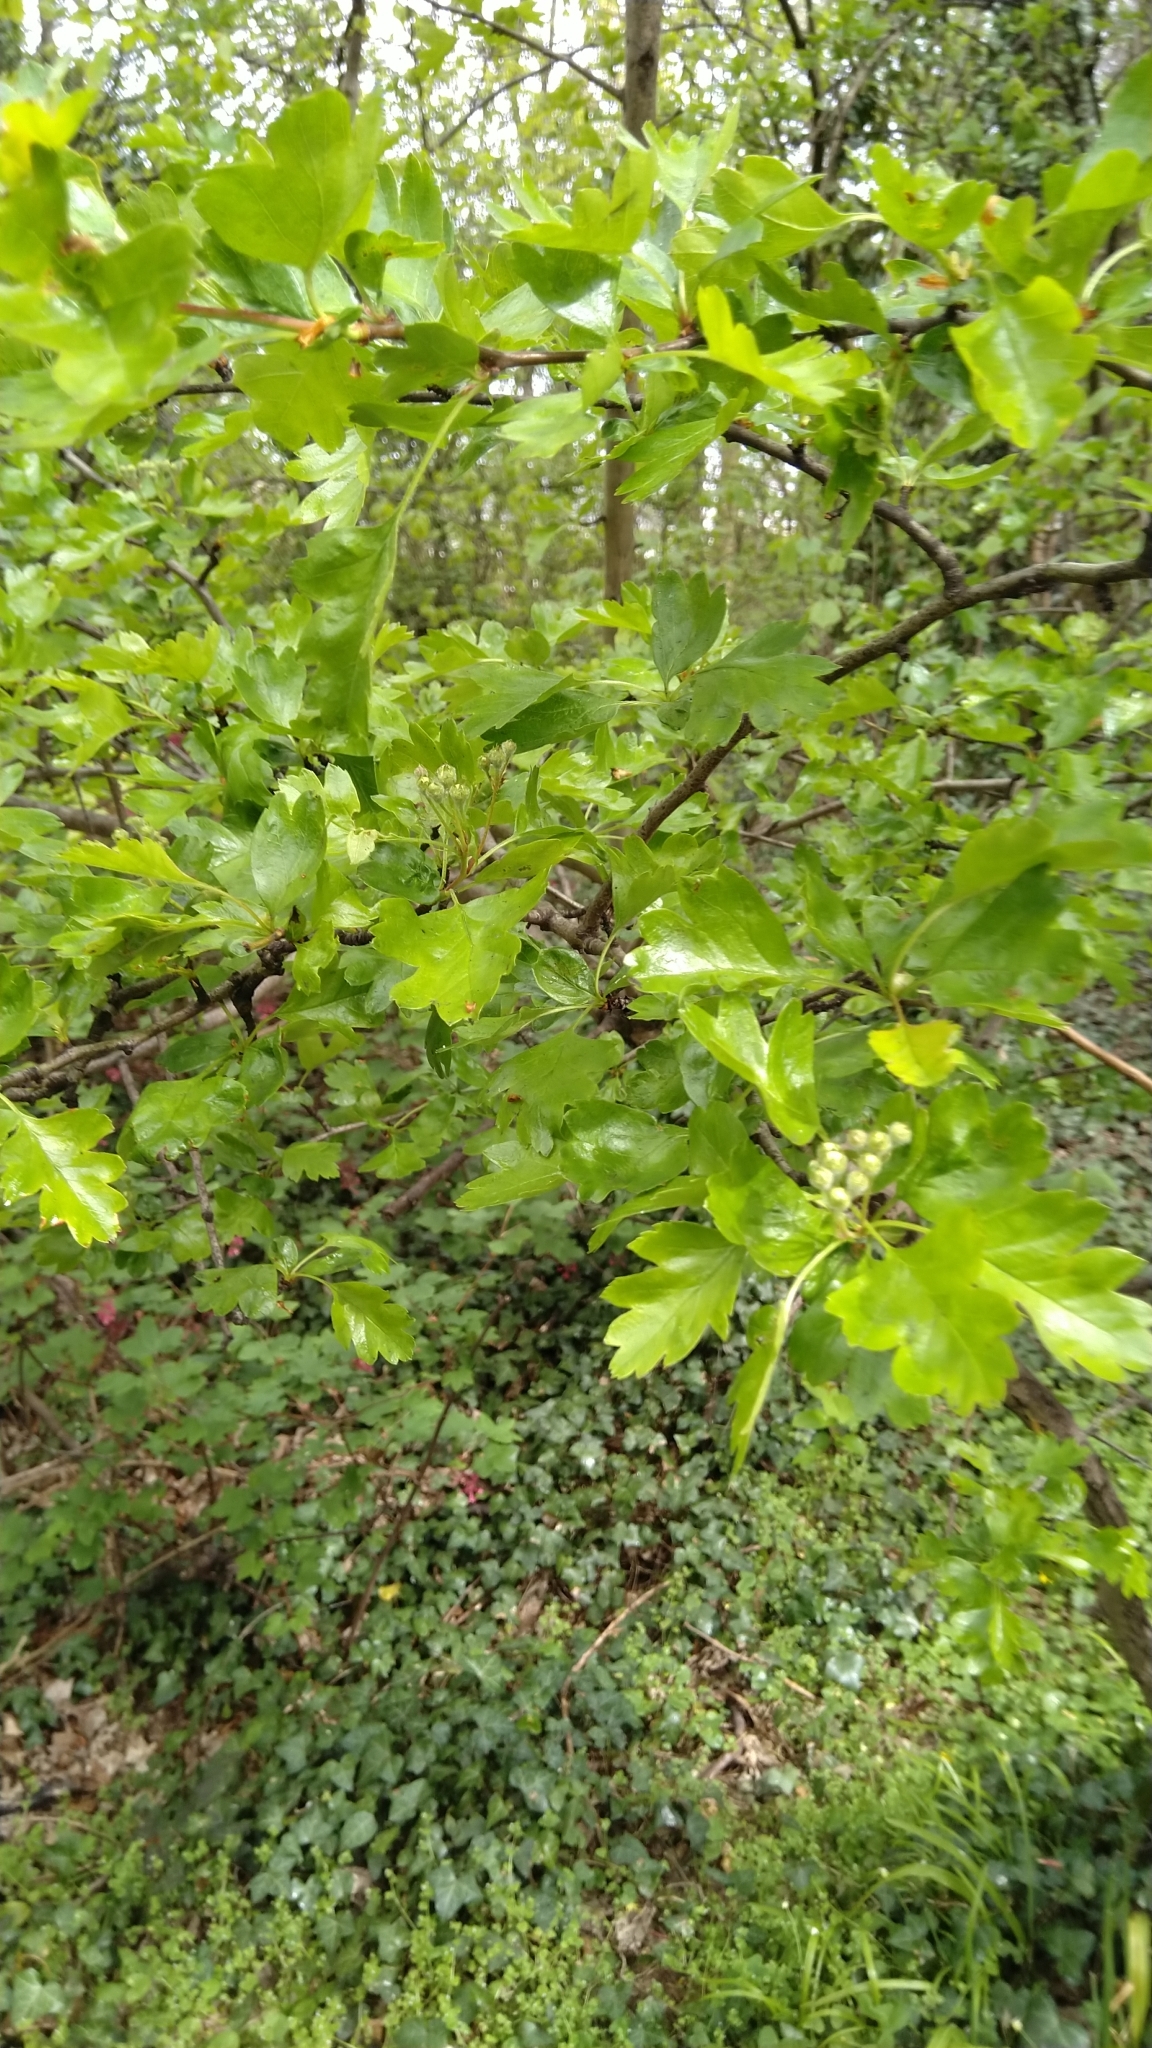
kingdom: Plantae
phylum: Tracheophyta
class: Magnoliopsida
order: Rosales
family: Rosaceae
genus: Crataegus
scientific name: Crataegus monogyna
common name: Hawthorn
